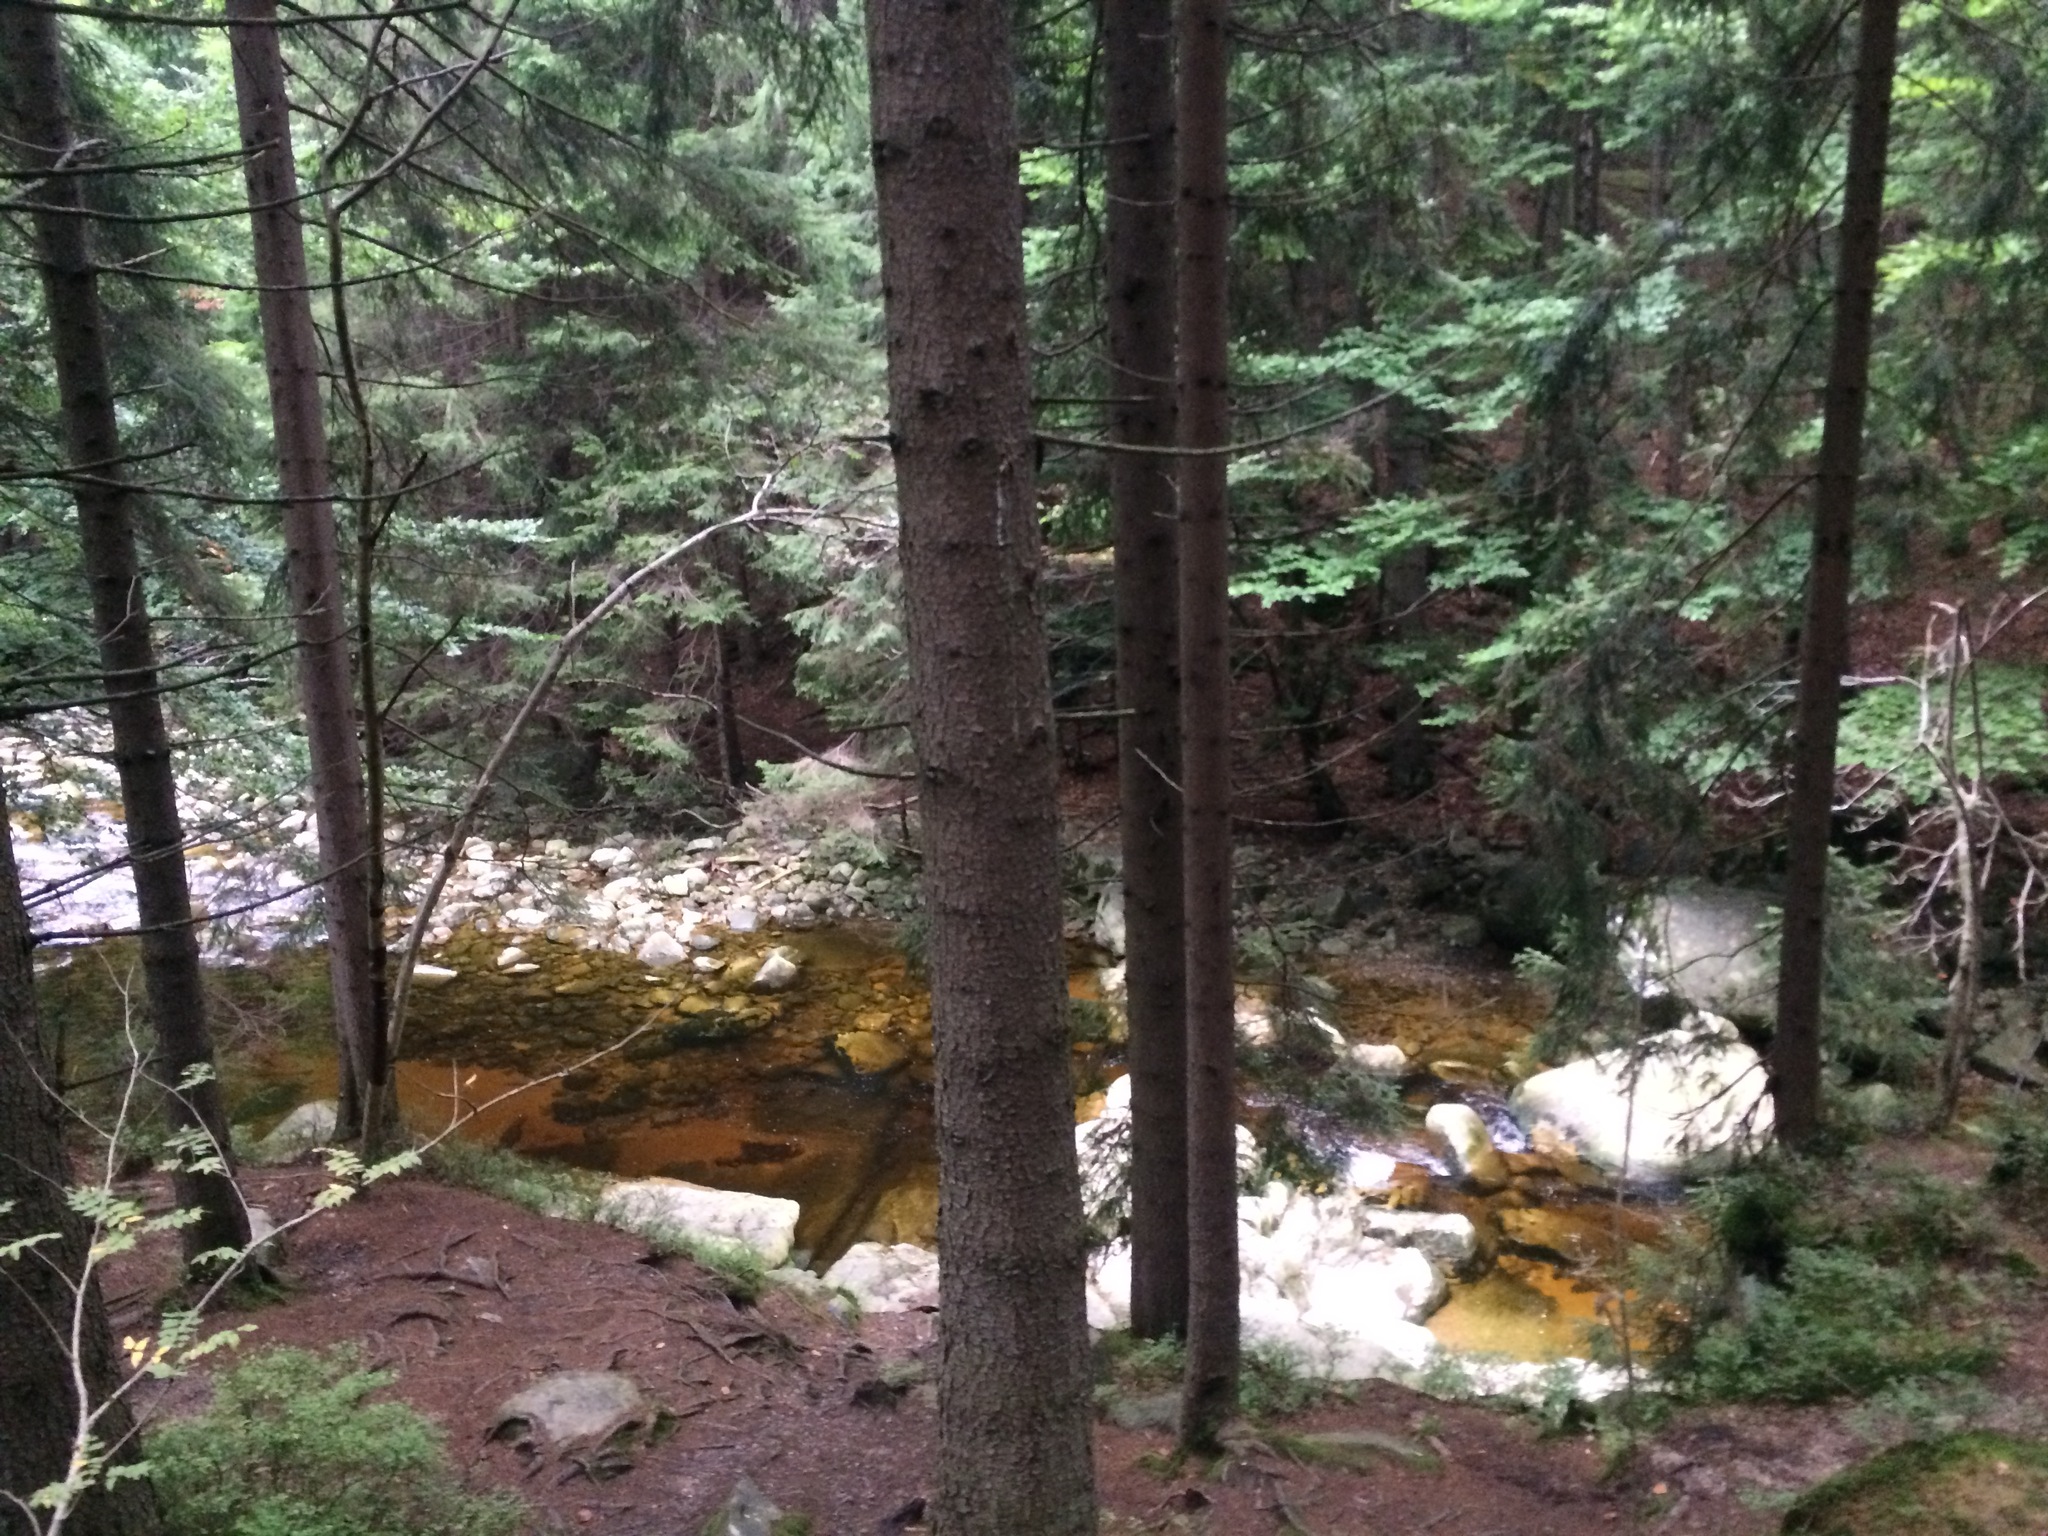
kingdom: Plantae
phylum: Tracheophyta
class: Pinopsida
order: Pinales
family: Pinaceae
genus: Picea
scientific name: Picea abies
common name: Norway spruce
